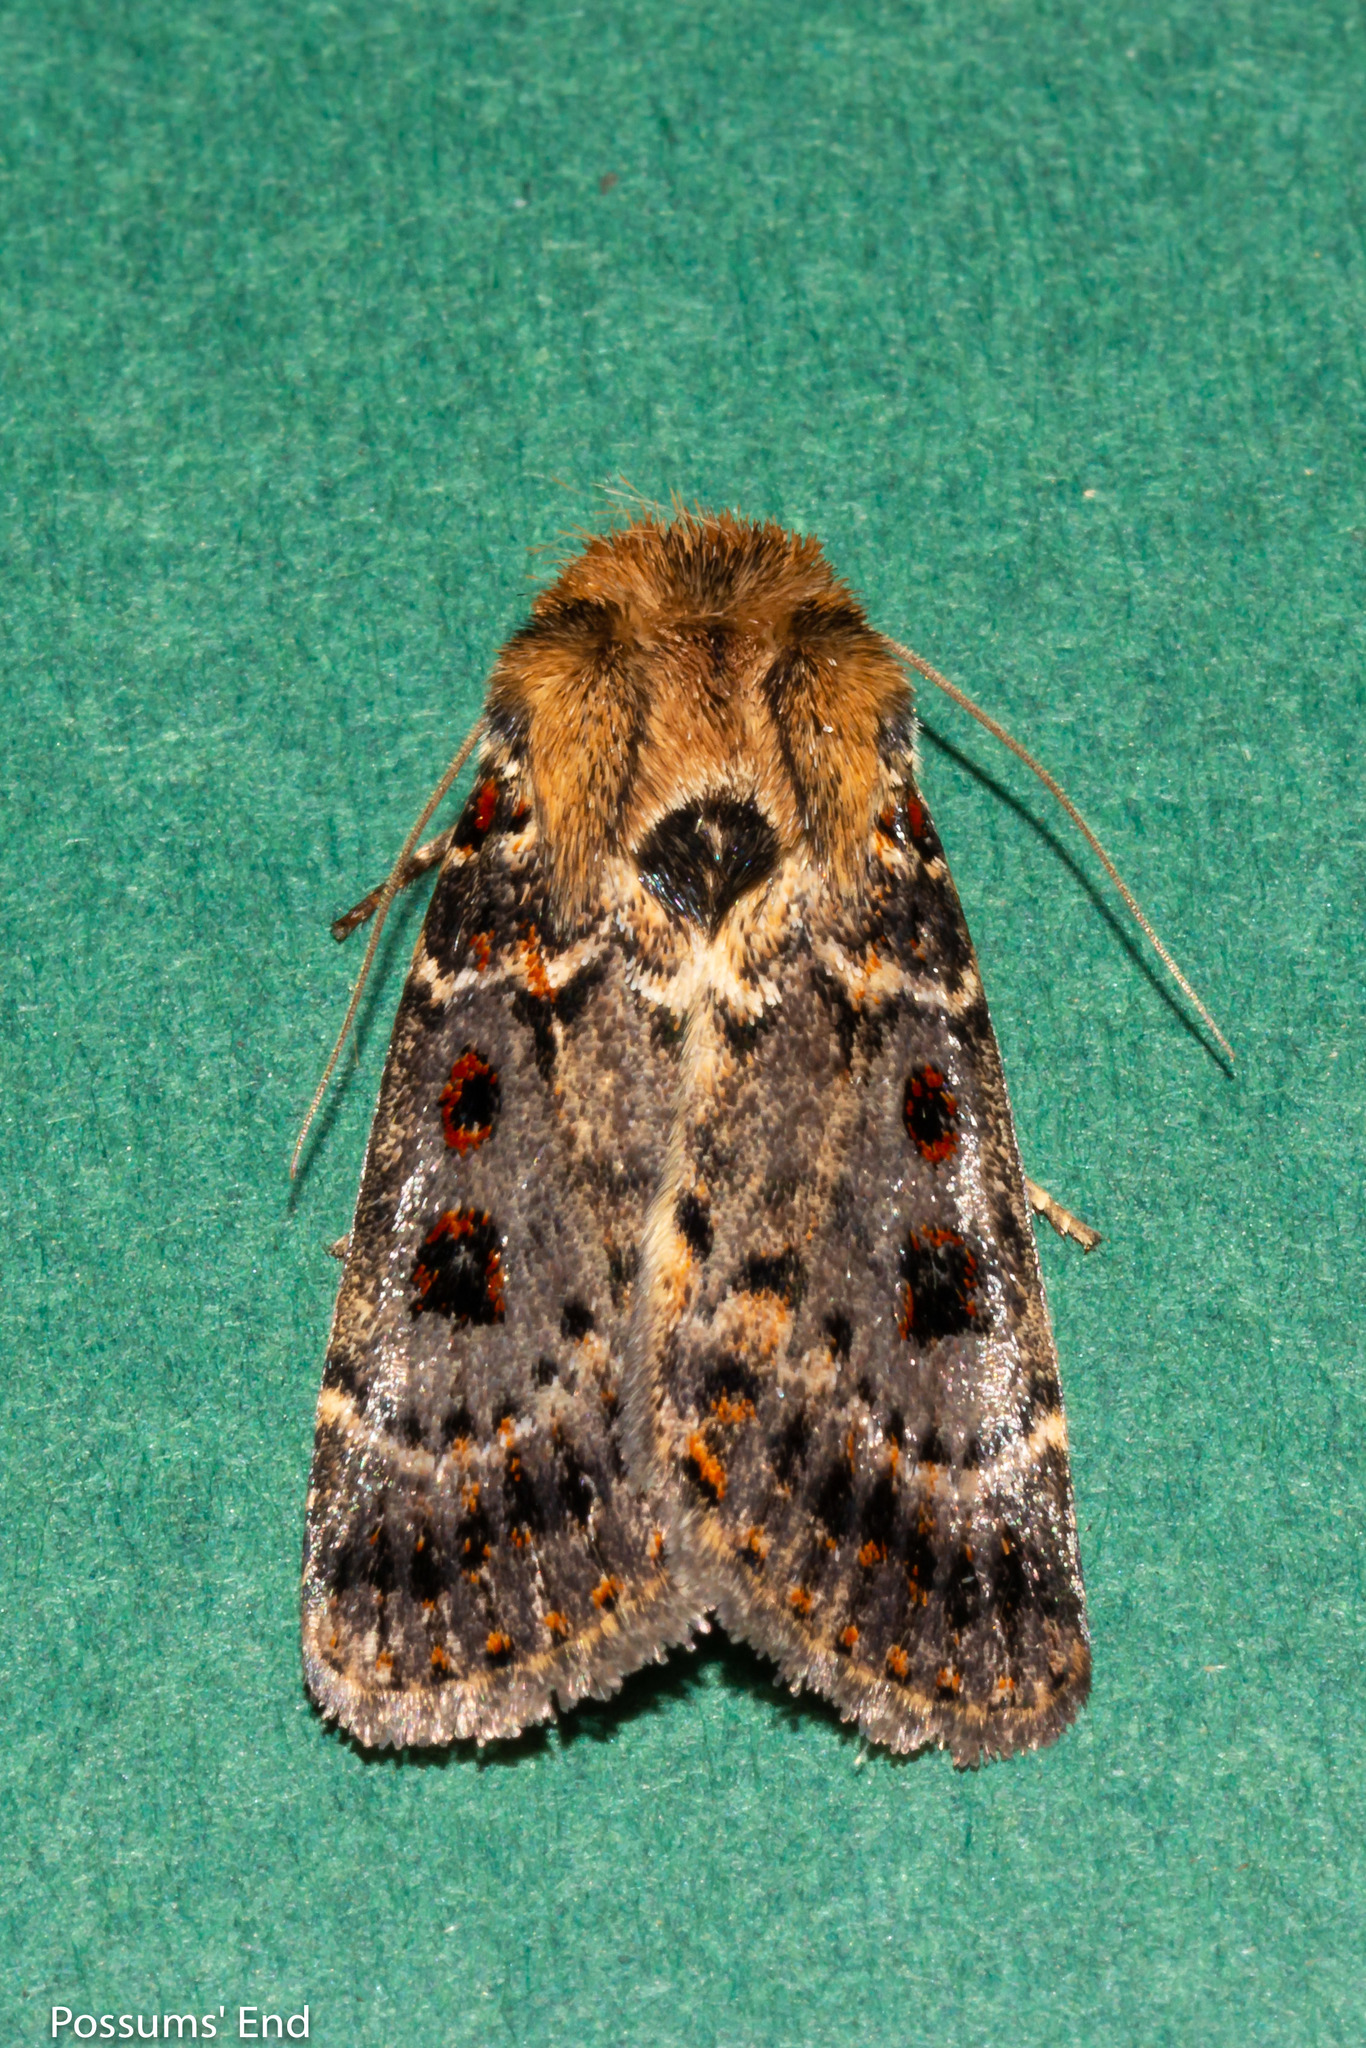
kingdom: Animalia
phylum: Arthropoda
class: Insecta
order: Lepidoptera
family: Noctuidae
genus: Proteuxoa
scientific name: Proteuxoa sanguinipuncta
